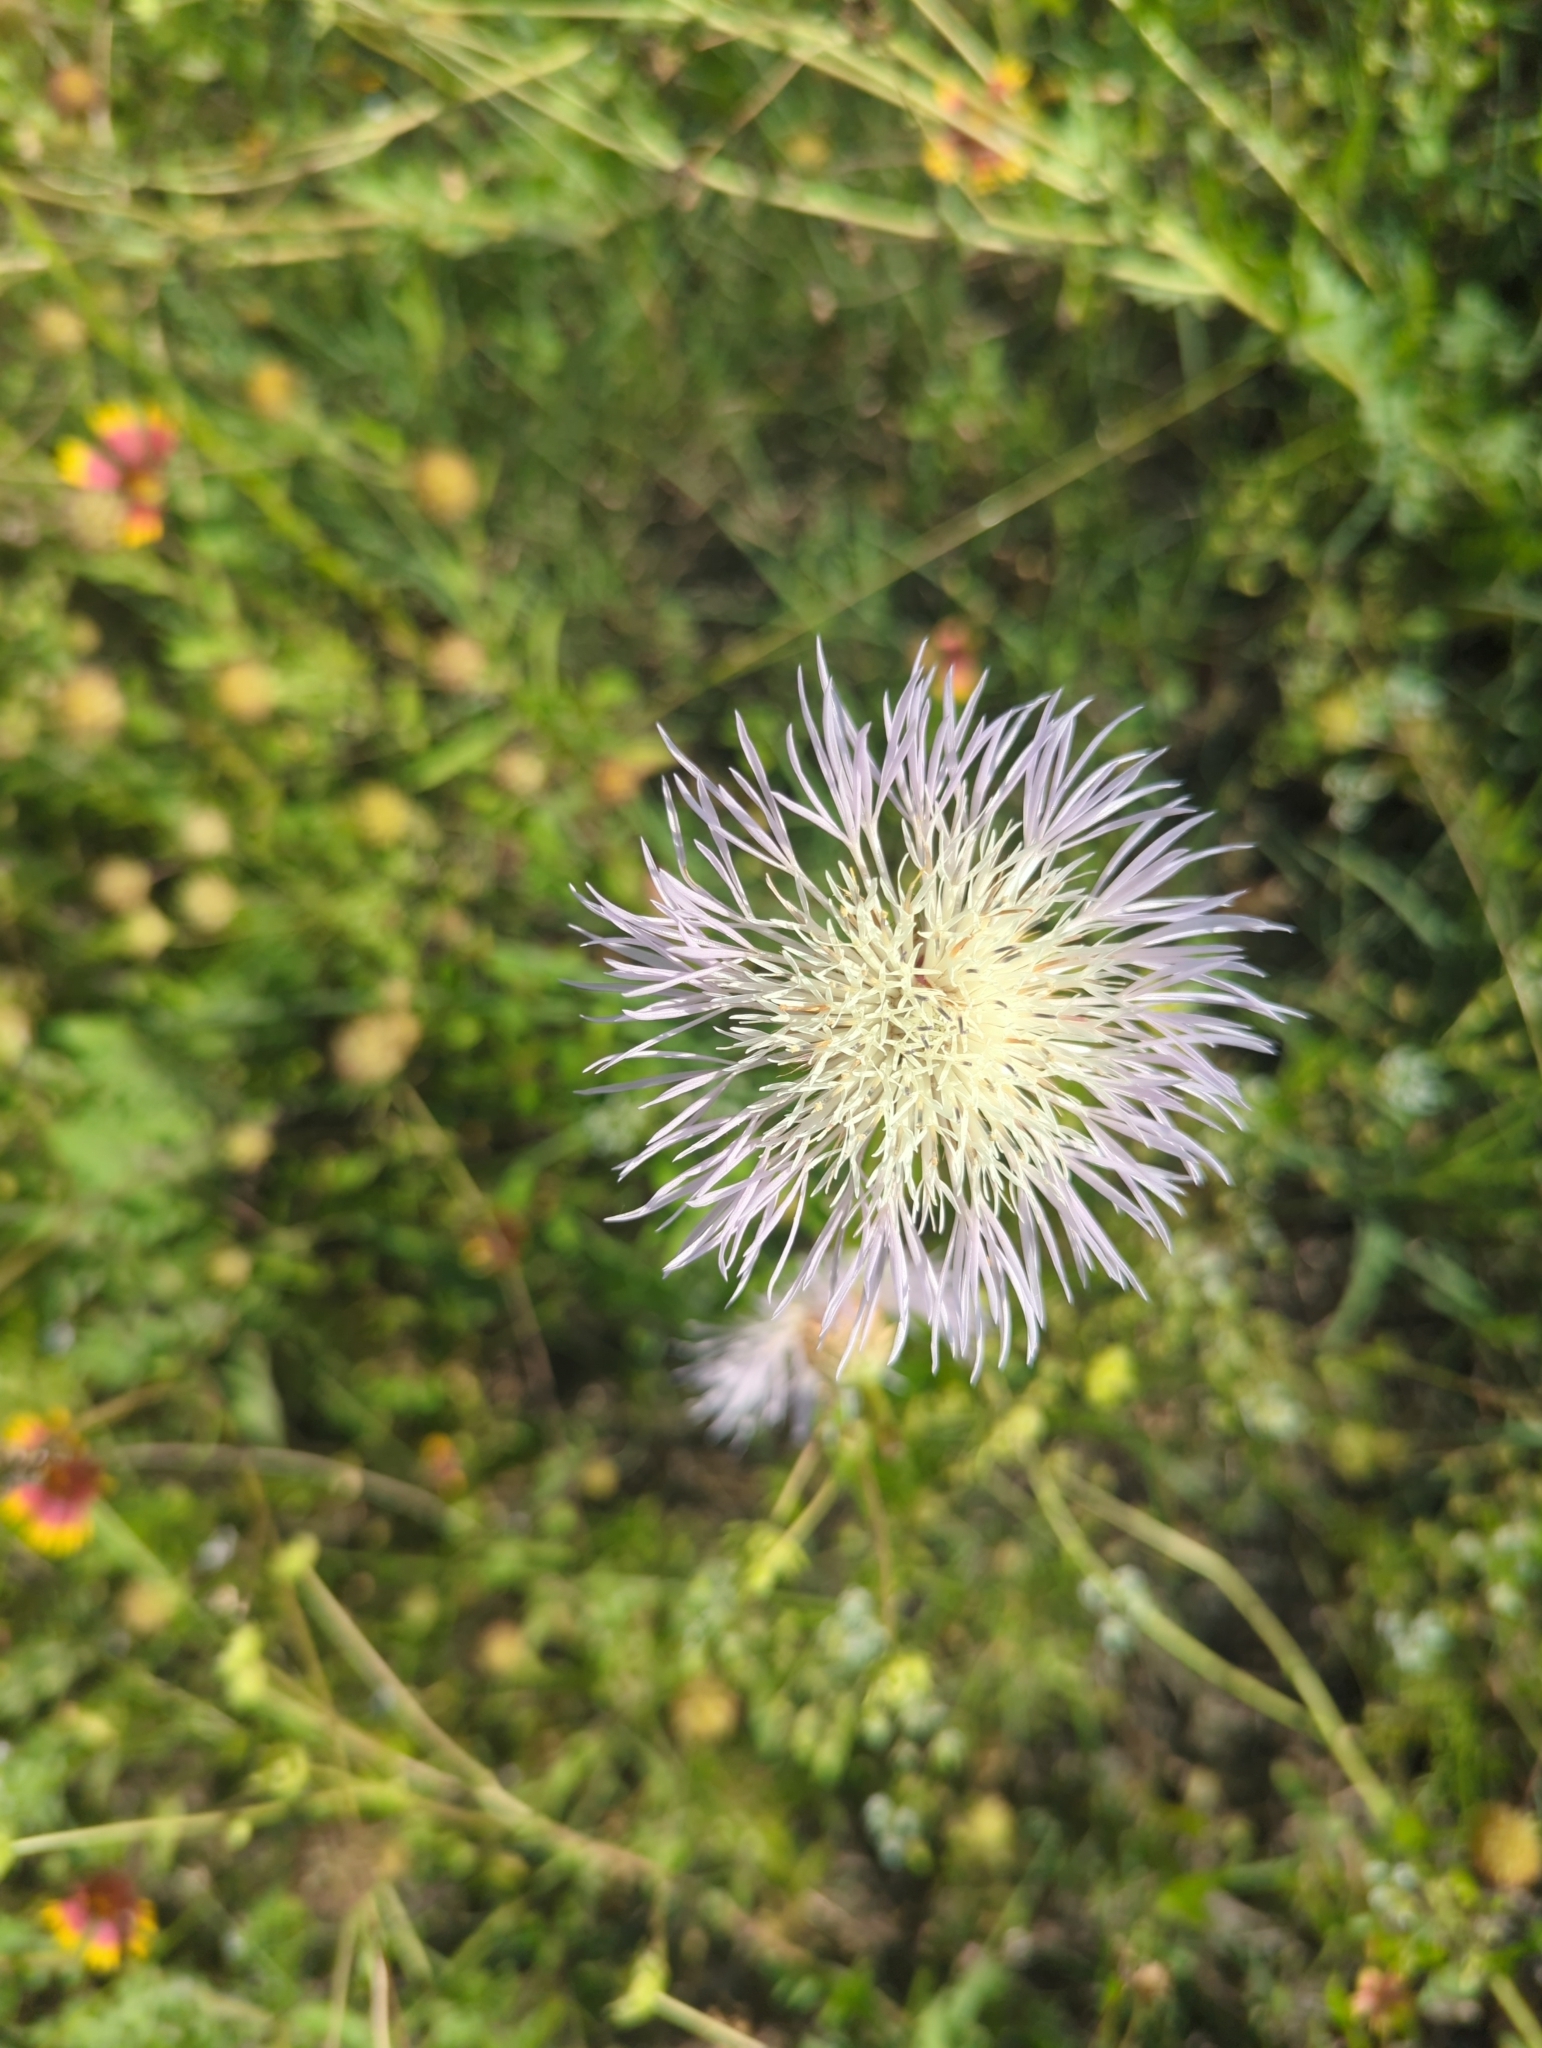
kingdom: Plantae
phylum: Tracheophyta
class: Magnoliopsida
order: Asterales
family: Asteraceae
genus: Plectocephalus
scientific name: Plectocephalus americanus
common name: American basket-flower
